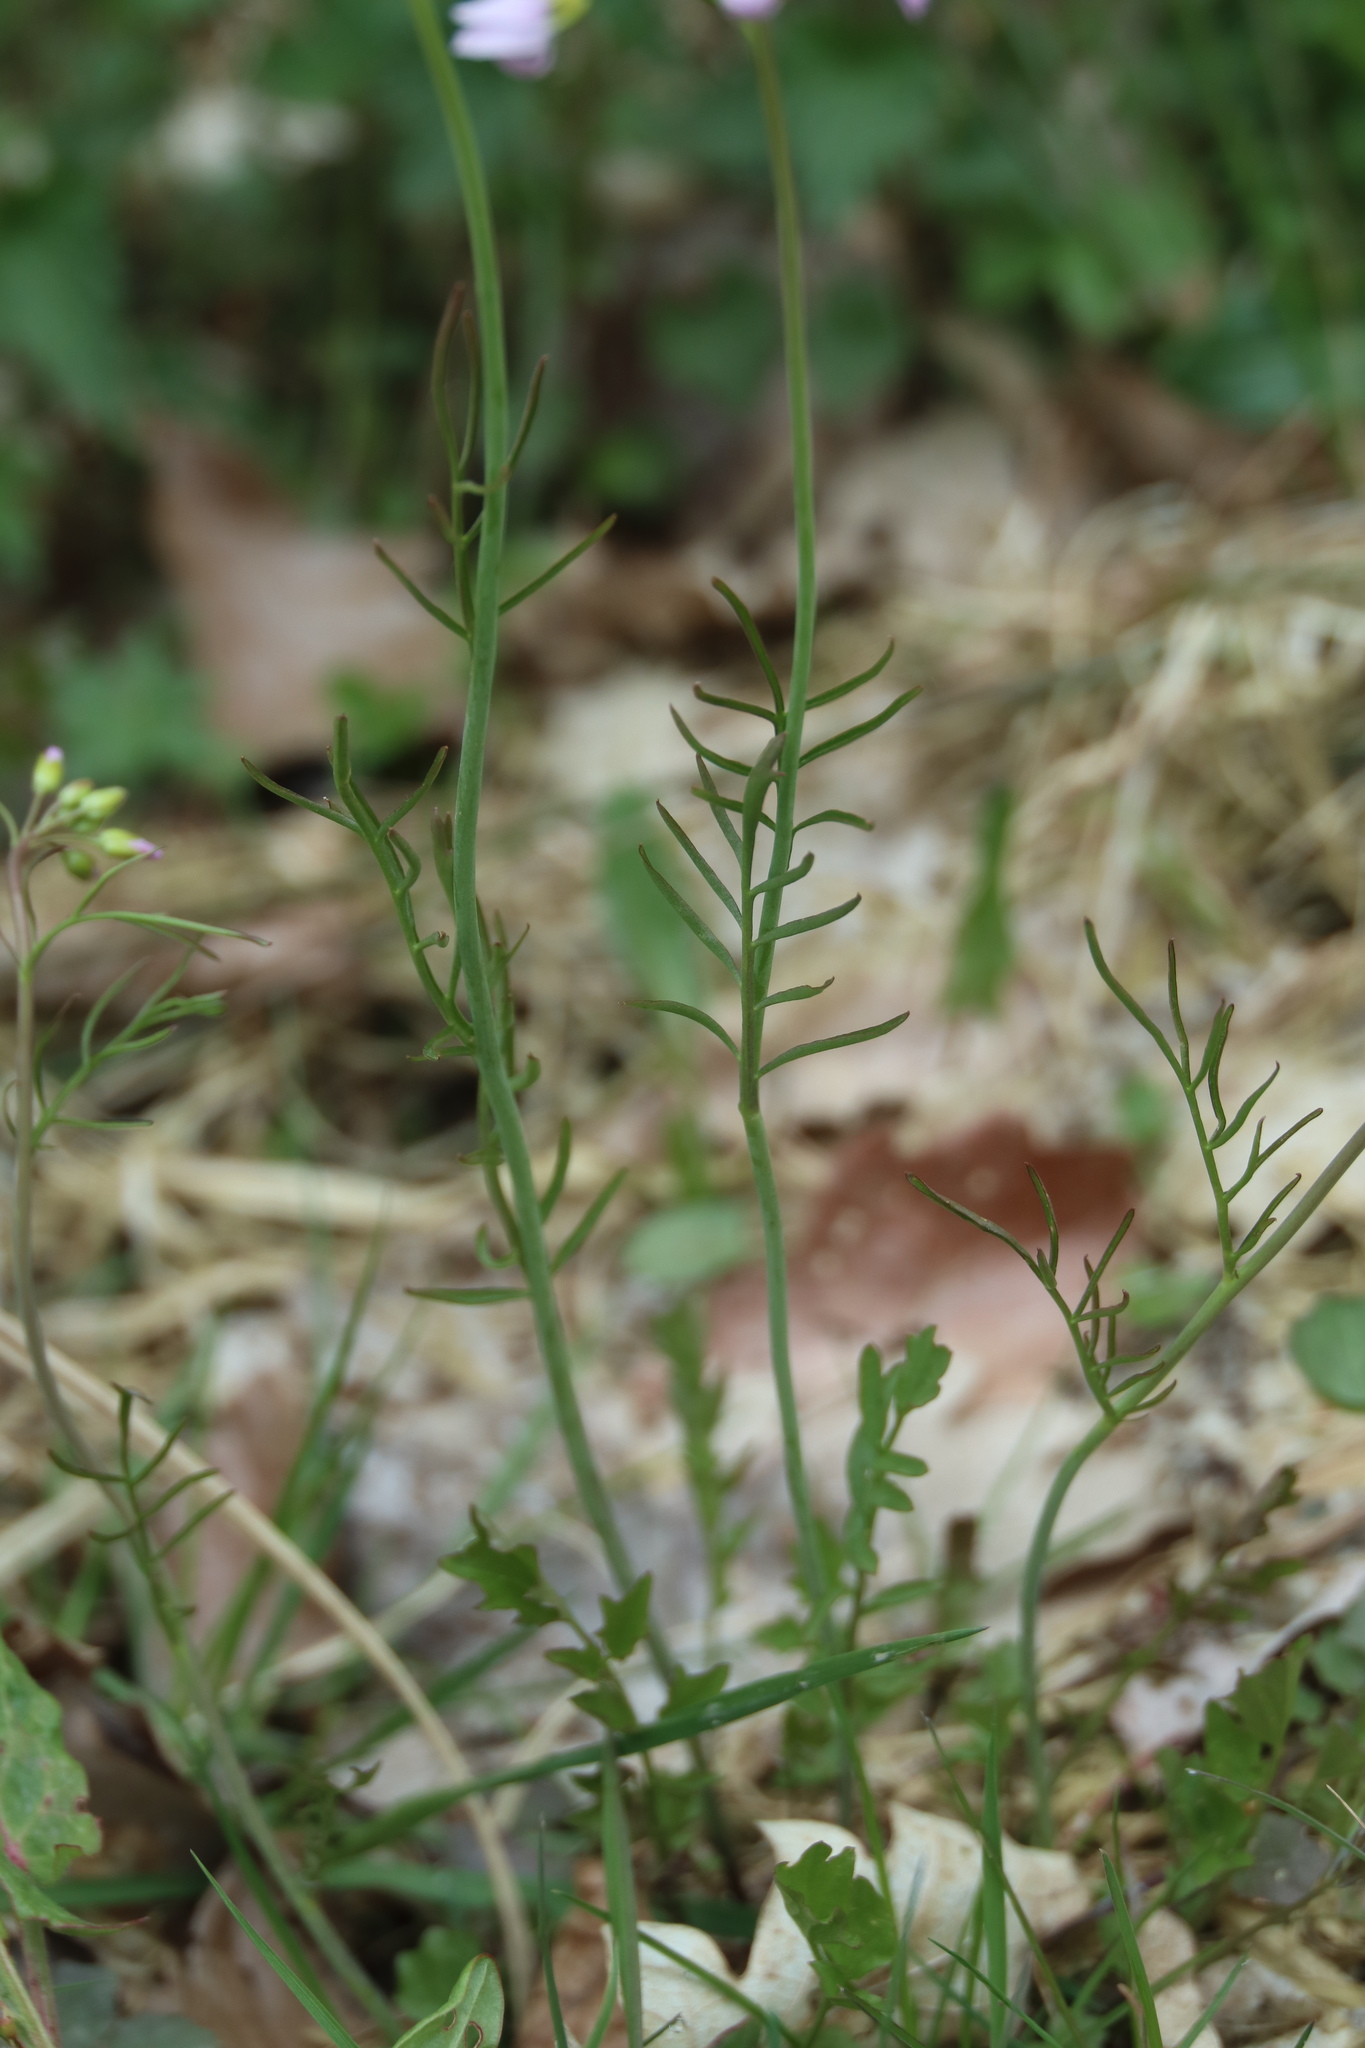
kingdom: Plantae
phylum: Tracheophyta
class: Magnoliopsida
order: Brassicales
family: Brassicaceae
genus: Cardamine
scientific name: Cardamine pratensis
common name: Cuckoo flower
